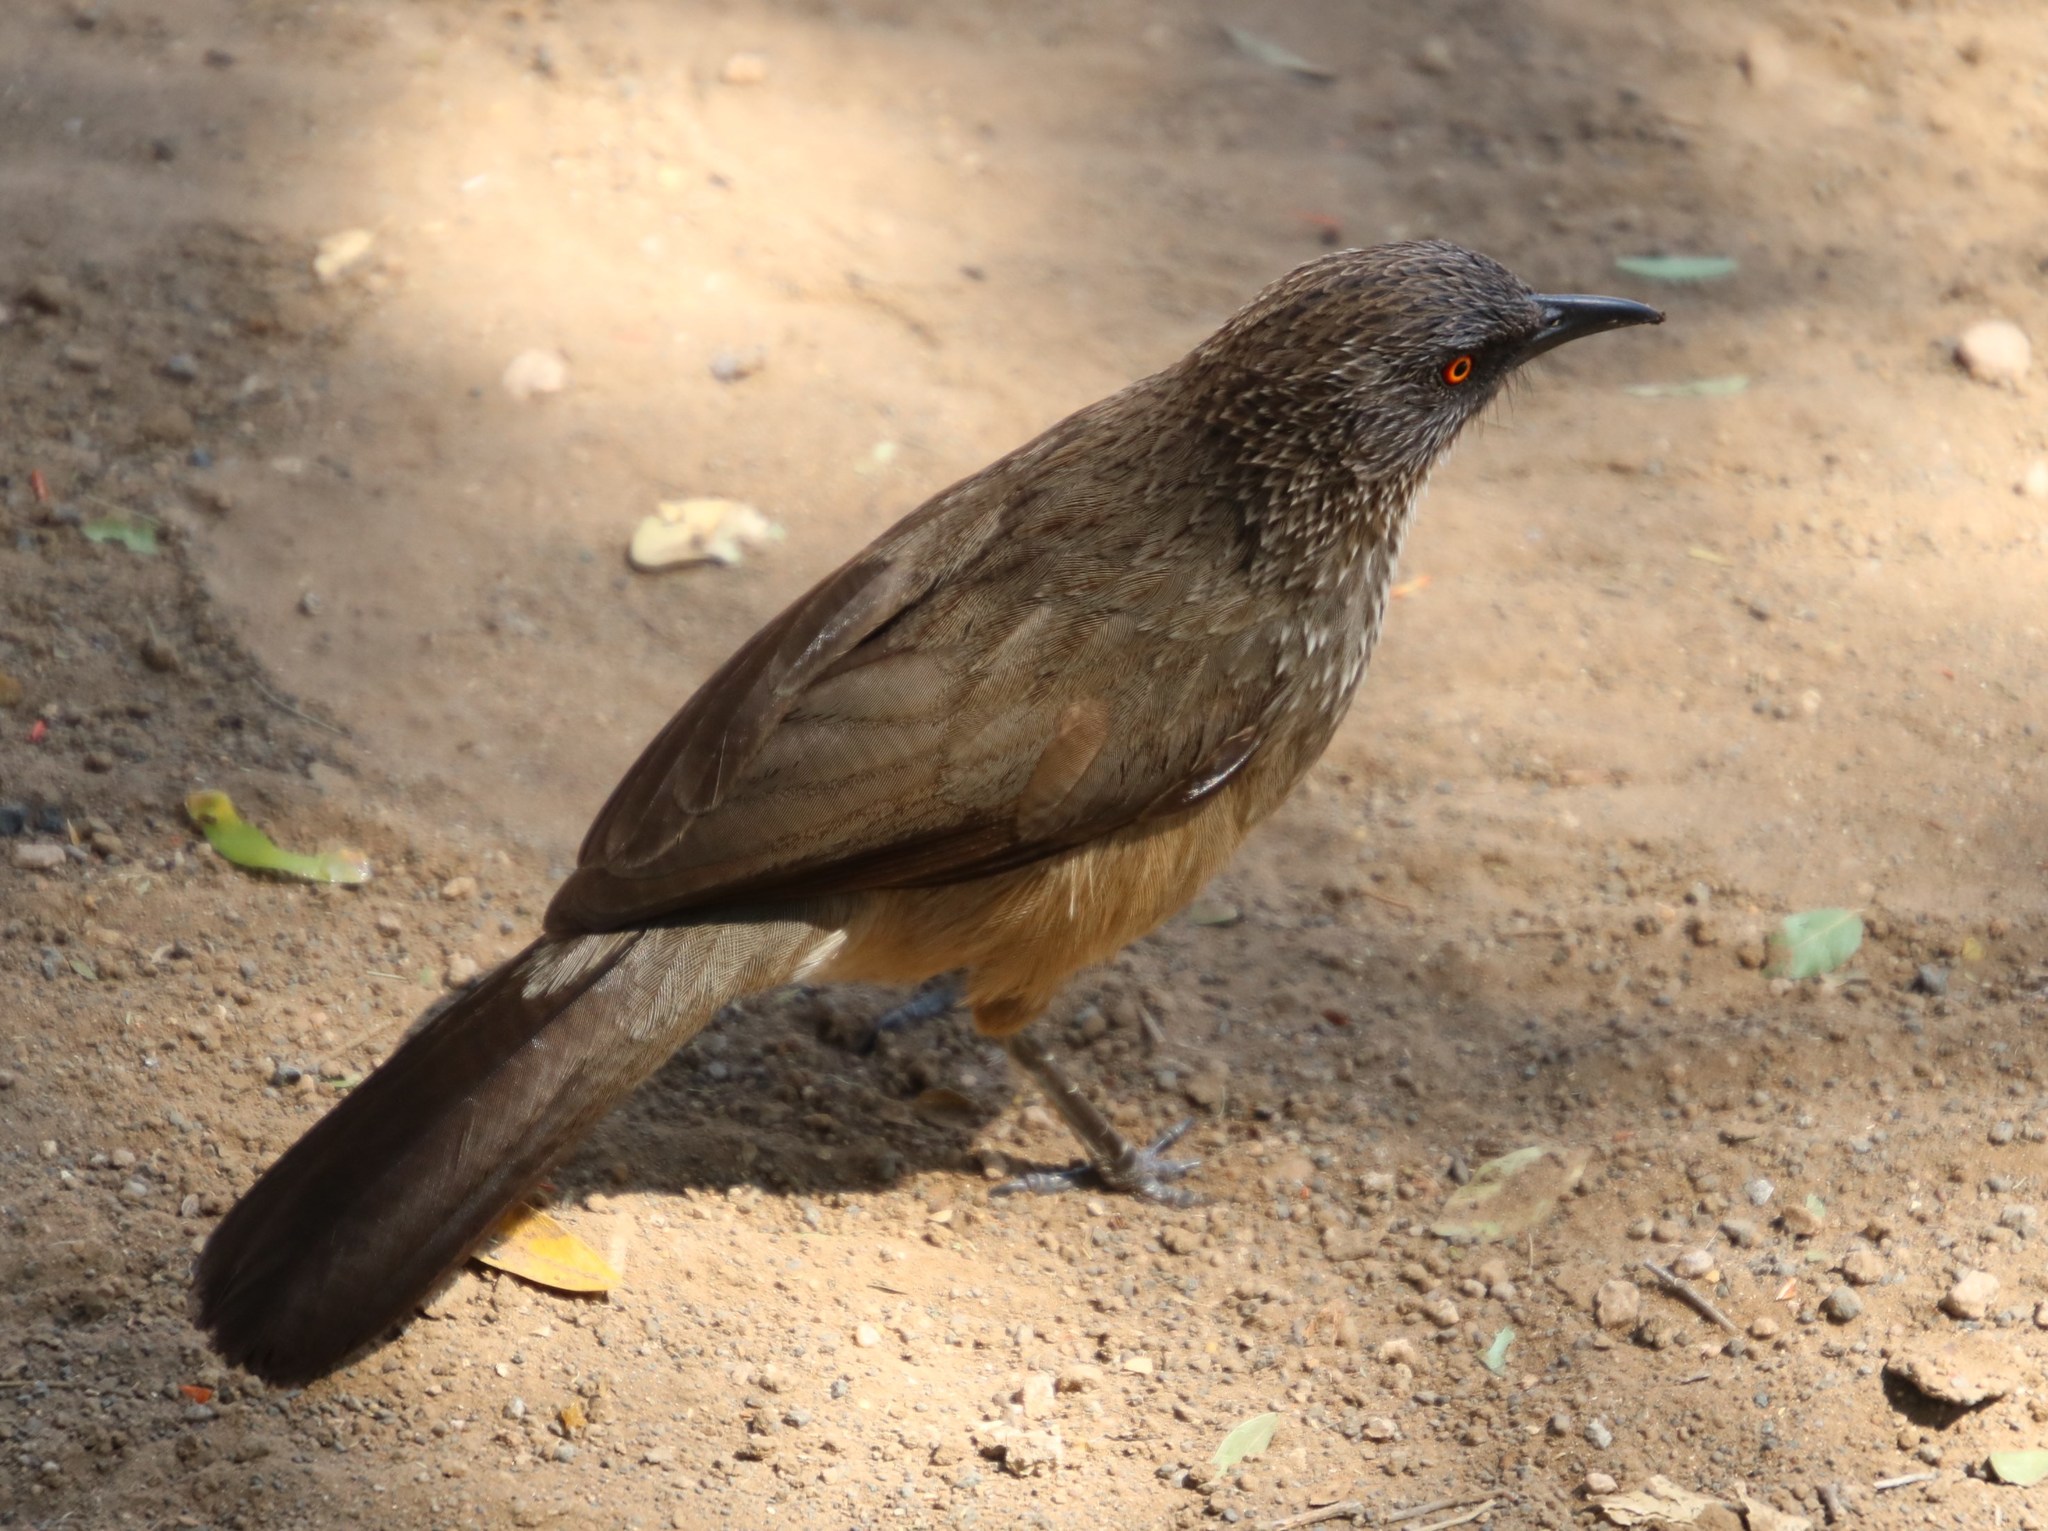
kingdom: Animalia
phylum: Chordata
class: Aves
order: Passeriformes
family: Leiothrichidae
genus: Turdoides
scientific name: Turdoides jardineii
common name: Arrow-marked babbler
